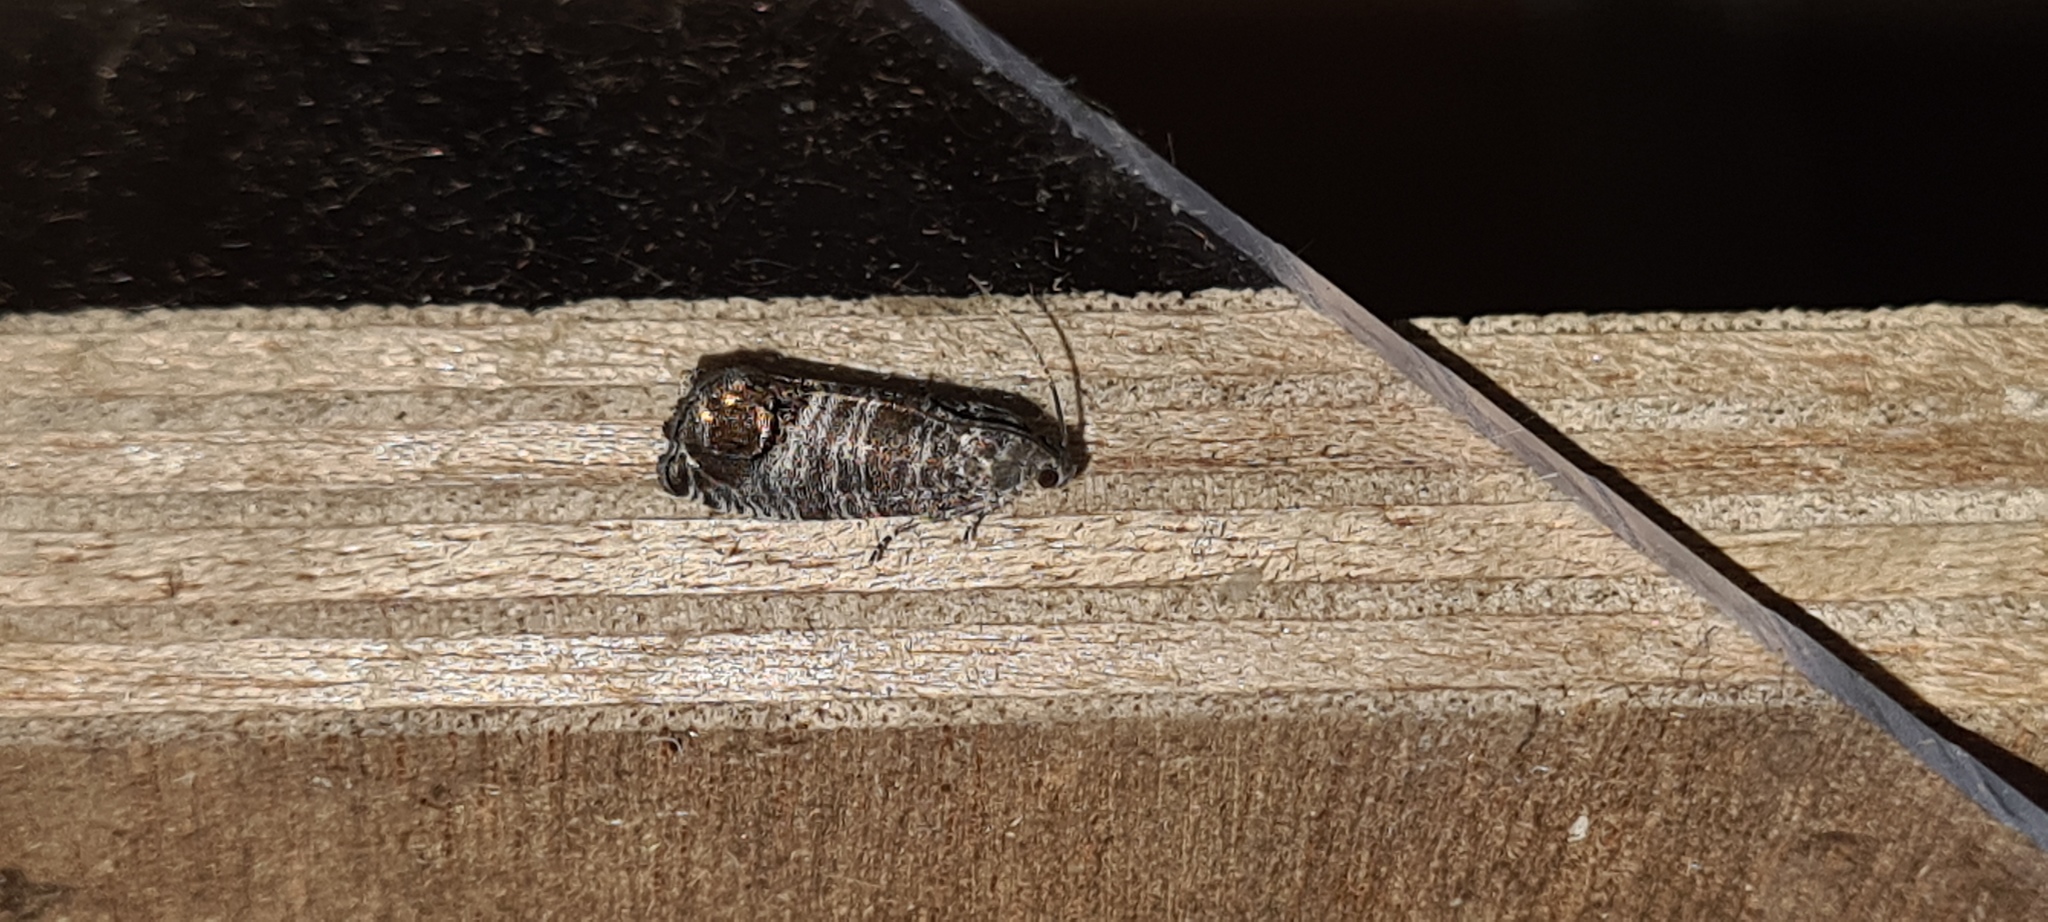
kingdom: Animalia
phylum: Arthropoda
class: Insecta
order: Lepidoptera
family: Tortricidae
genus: Cydia
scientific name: Cydia pomonella
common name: Codling moth
